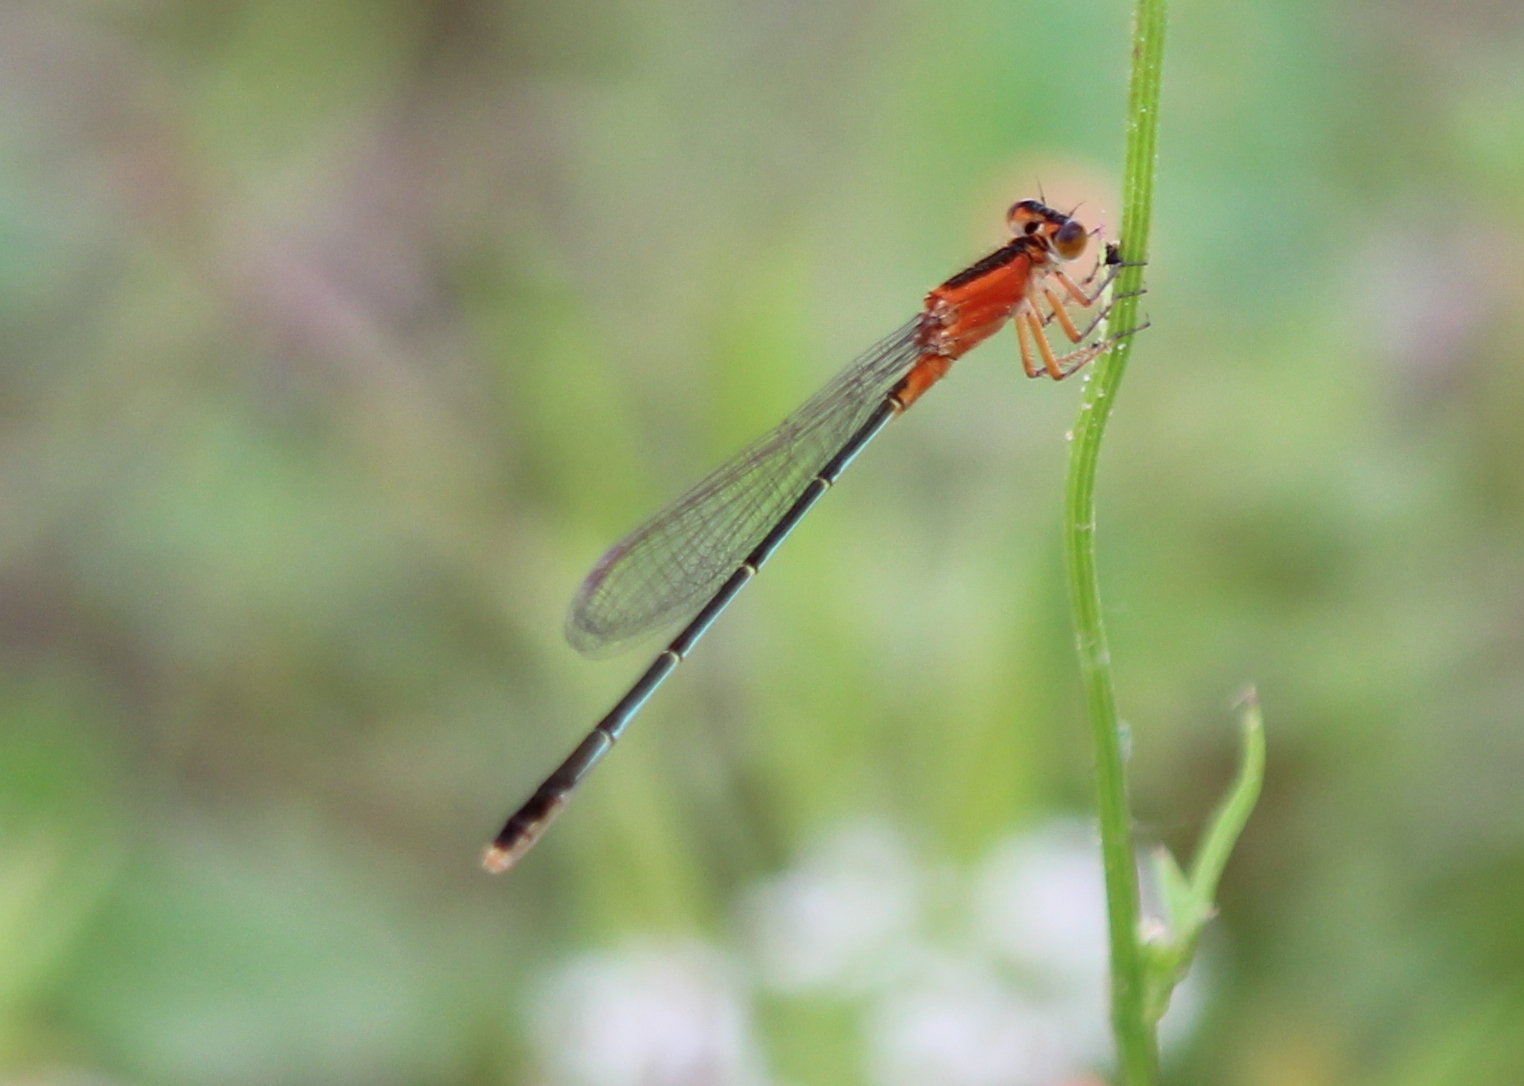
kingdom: Animalia
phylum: Arthropoda
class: Insecta
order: Odonata
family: Coenagrionidae
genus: Ischnura
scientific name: Ischnura ramburii
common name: Rambur's forktail
